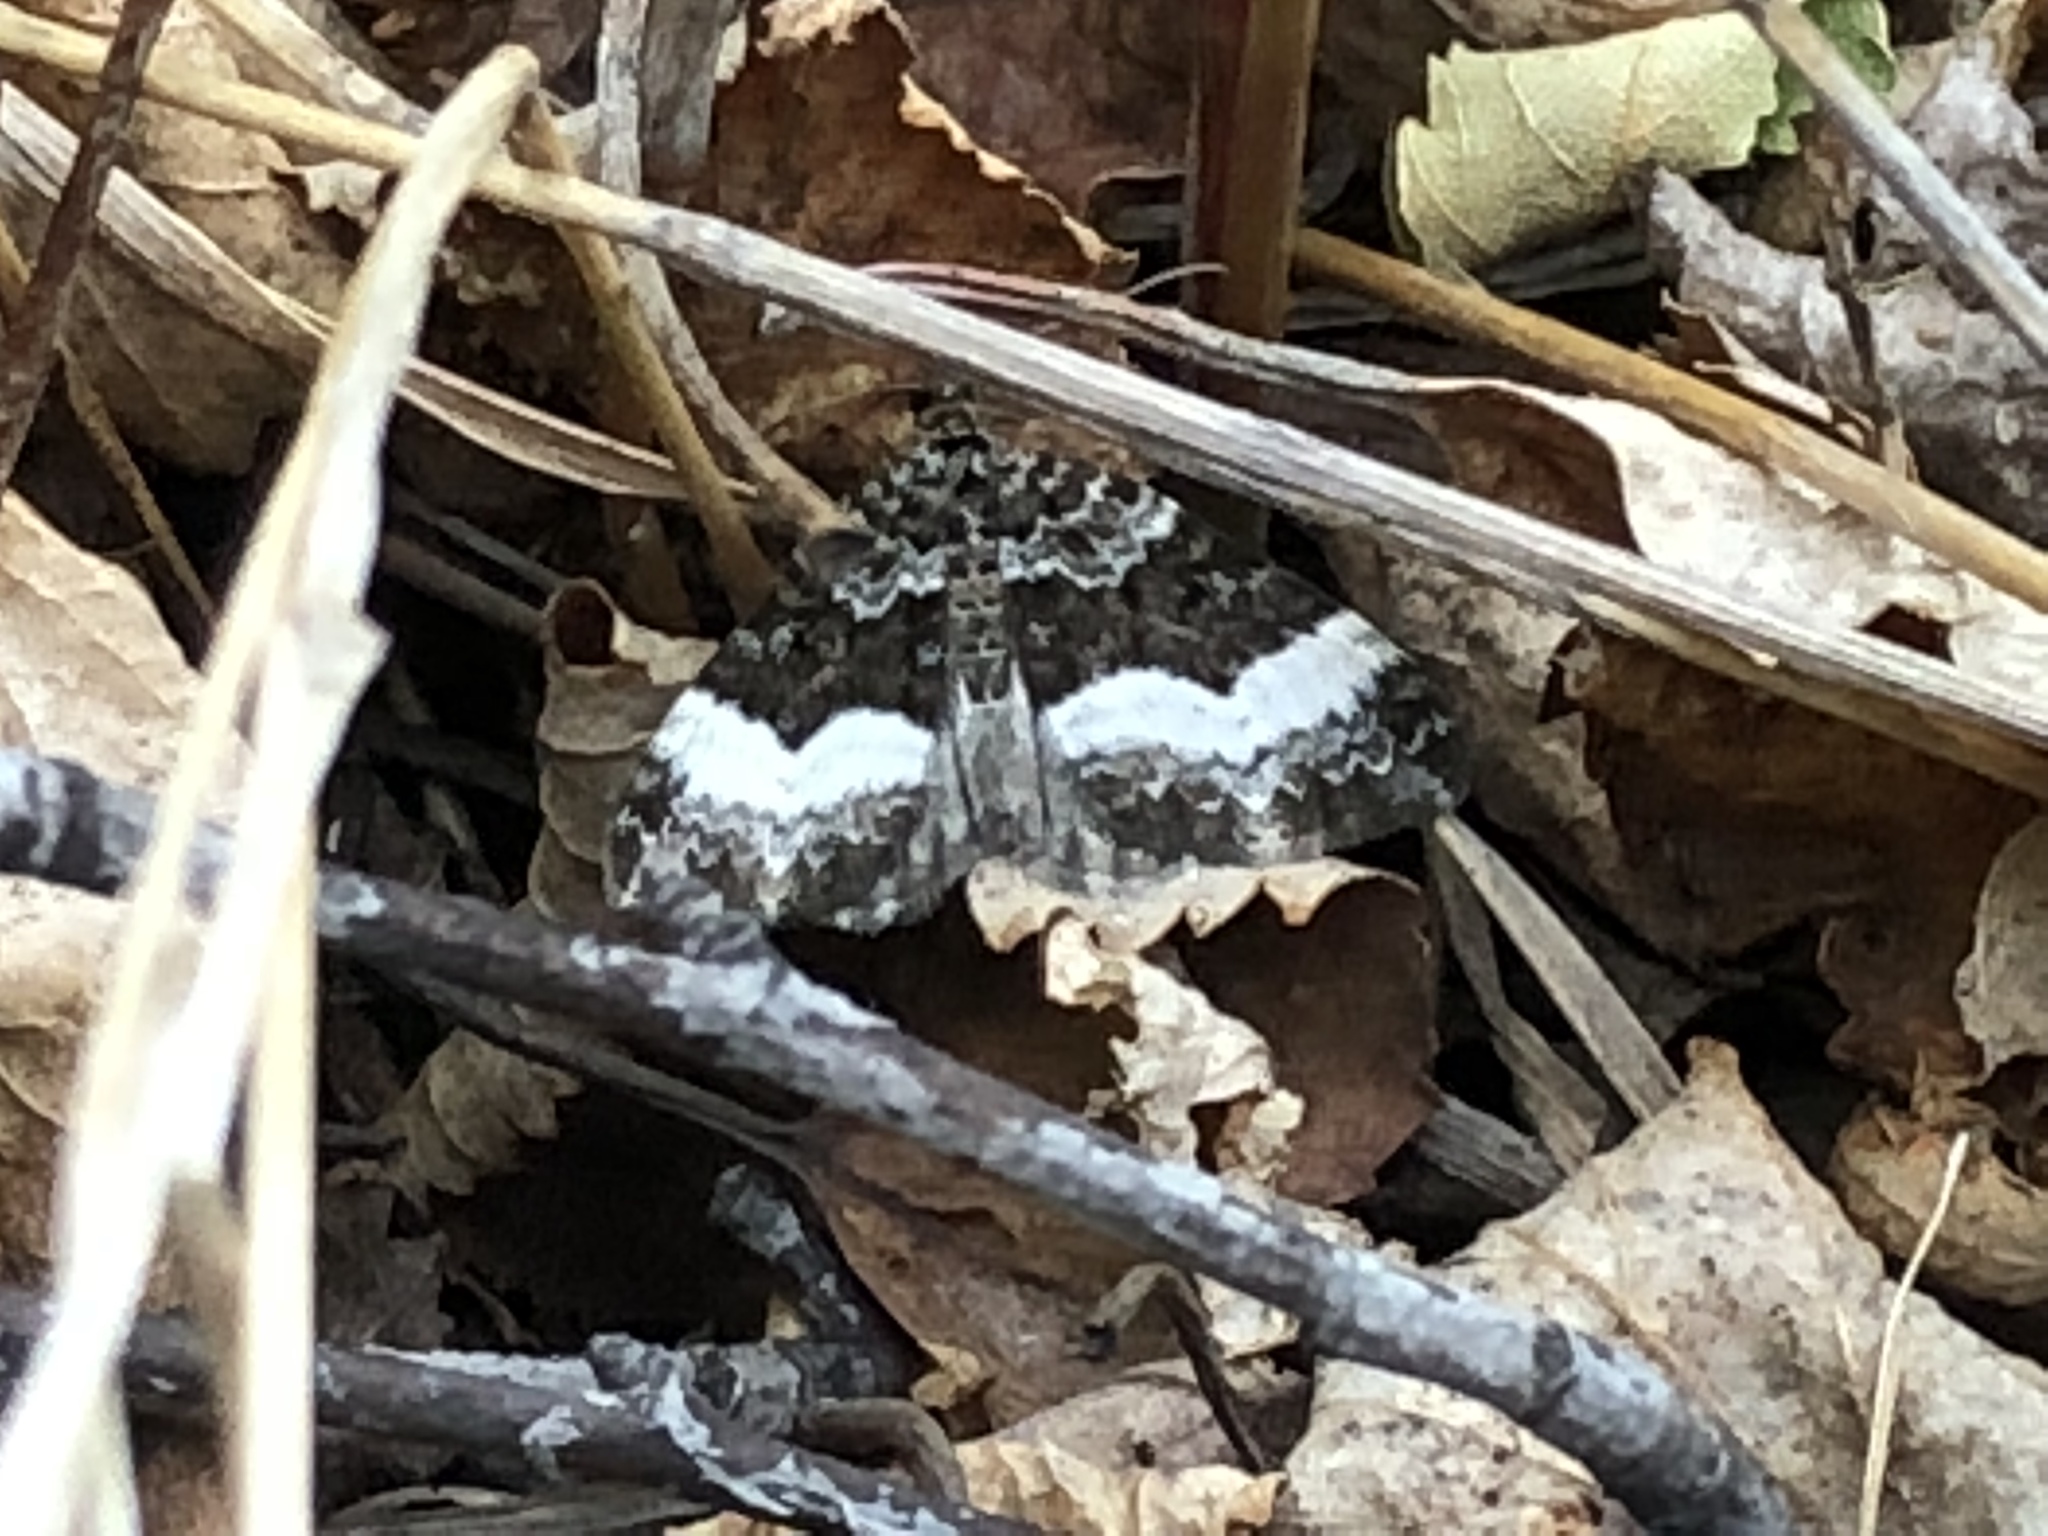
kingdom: Animalia
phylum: Arthropoda
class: Insecta
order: Lepidoptera
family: Geometridae
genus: Spargania
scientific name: Spargania luctuata
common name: White-banded carpet
